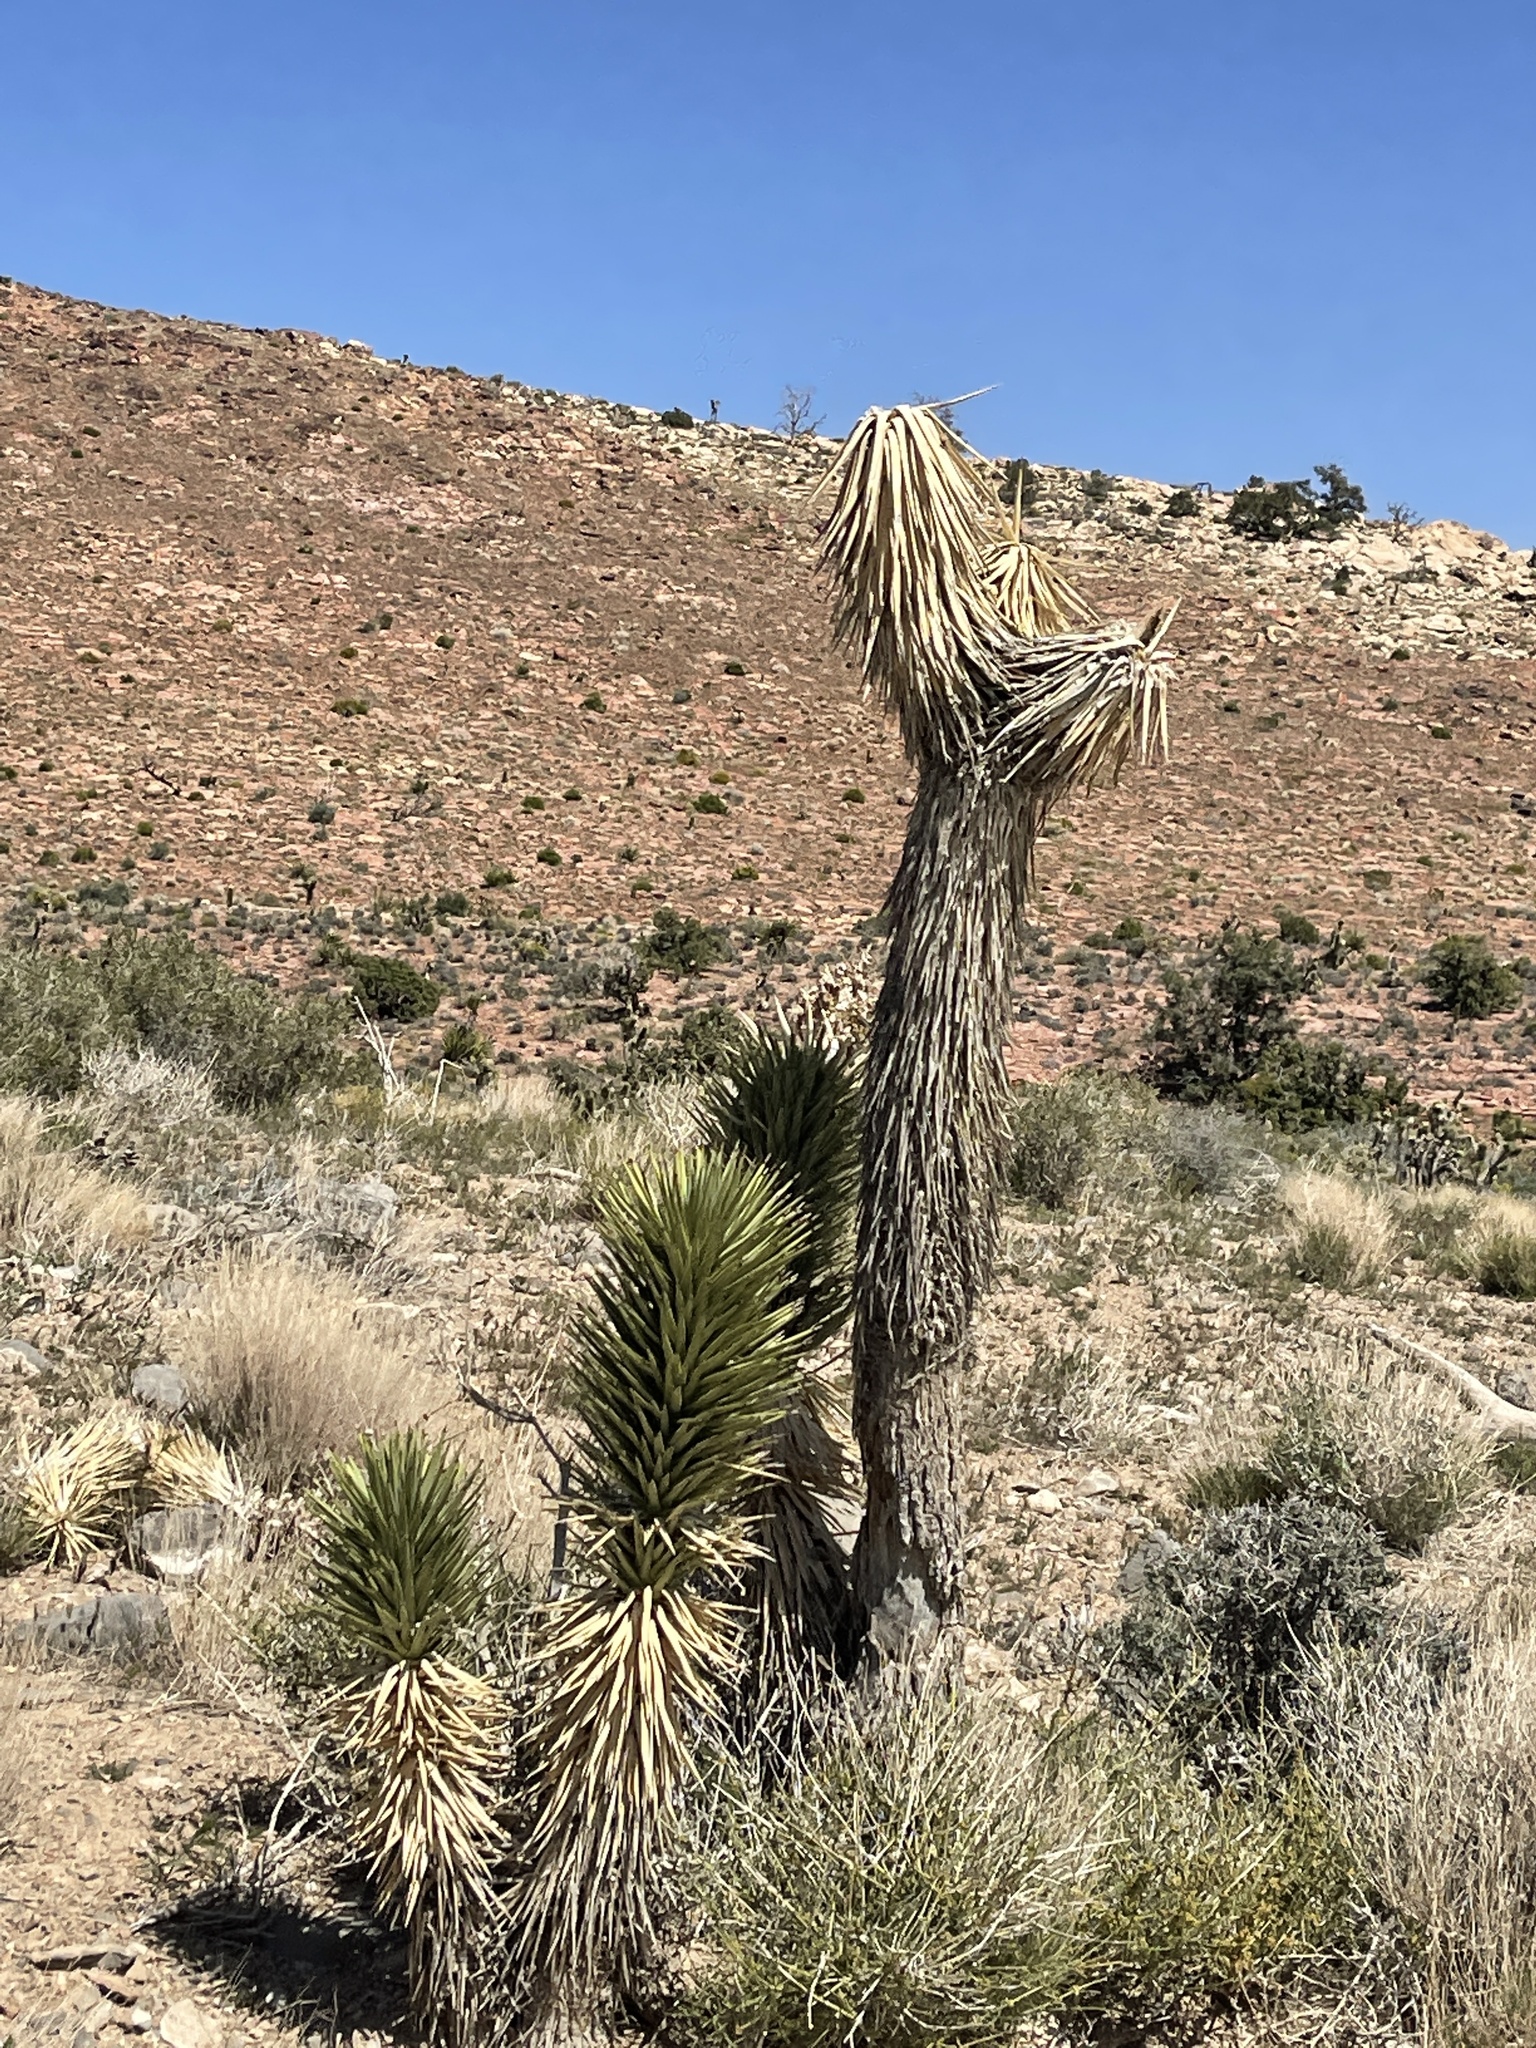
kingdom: Plantae
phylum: Tracheophyta
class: Liliopsida
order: Asparagales
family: Asparagaceae
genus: Yucca
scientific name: Yucca brevifolia
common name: Joshua tree
